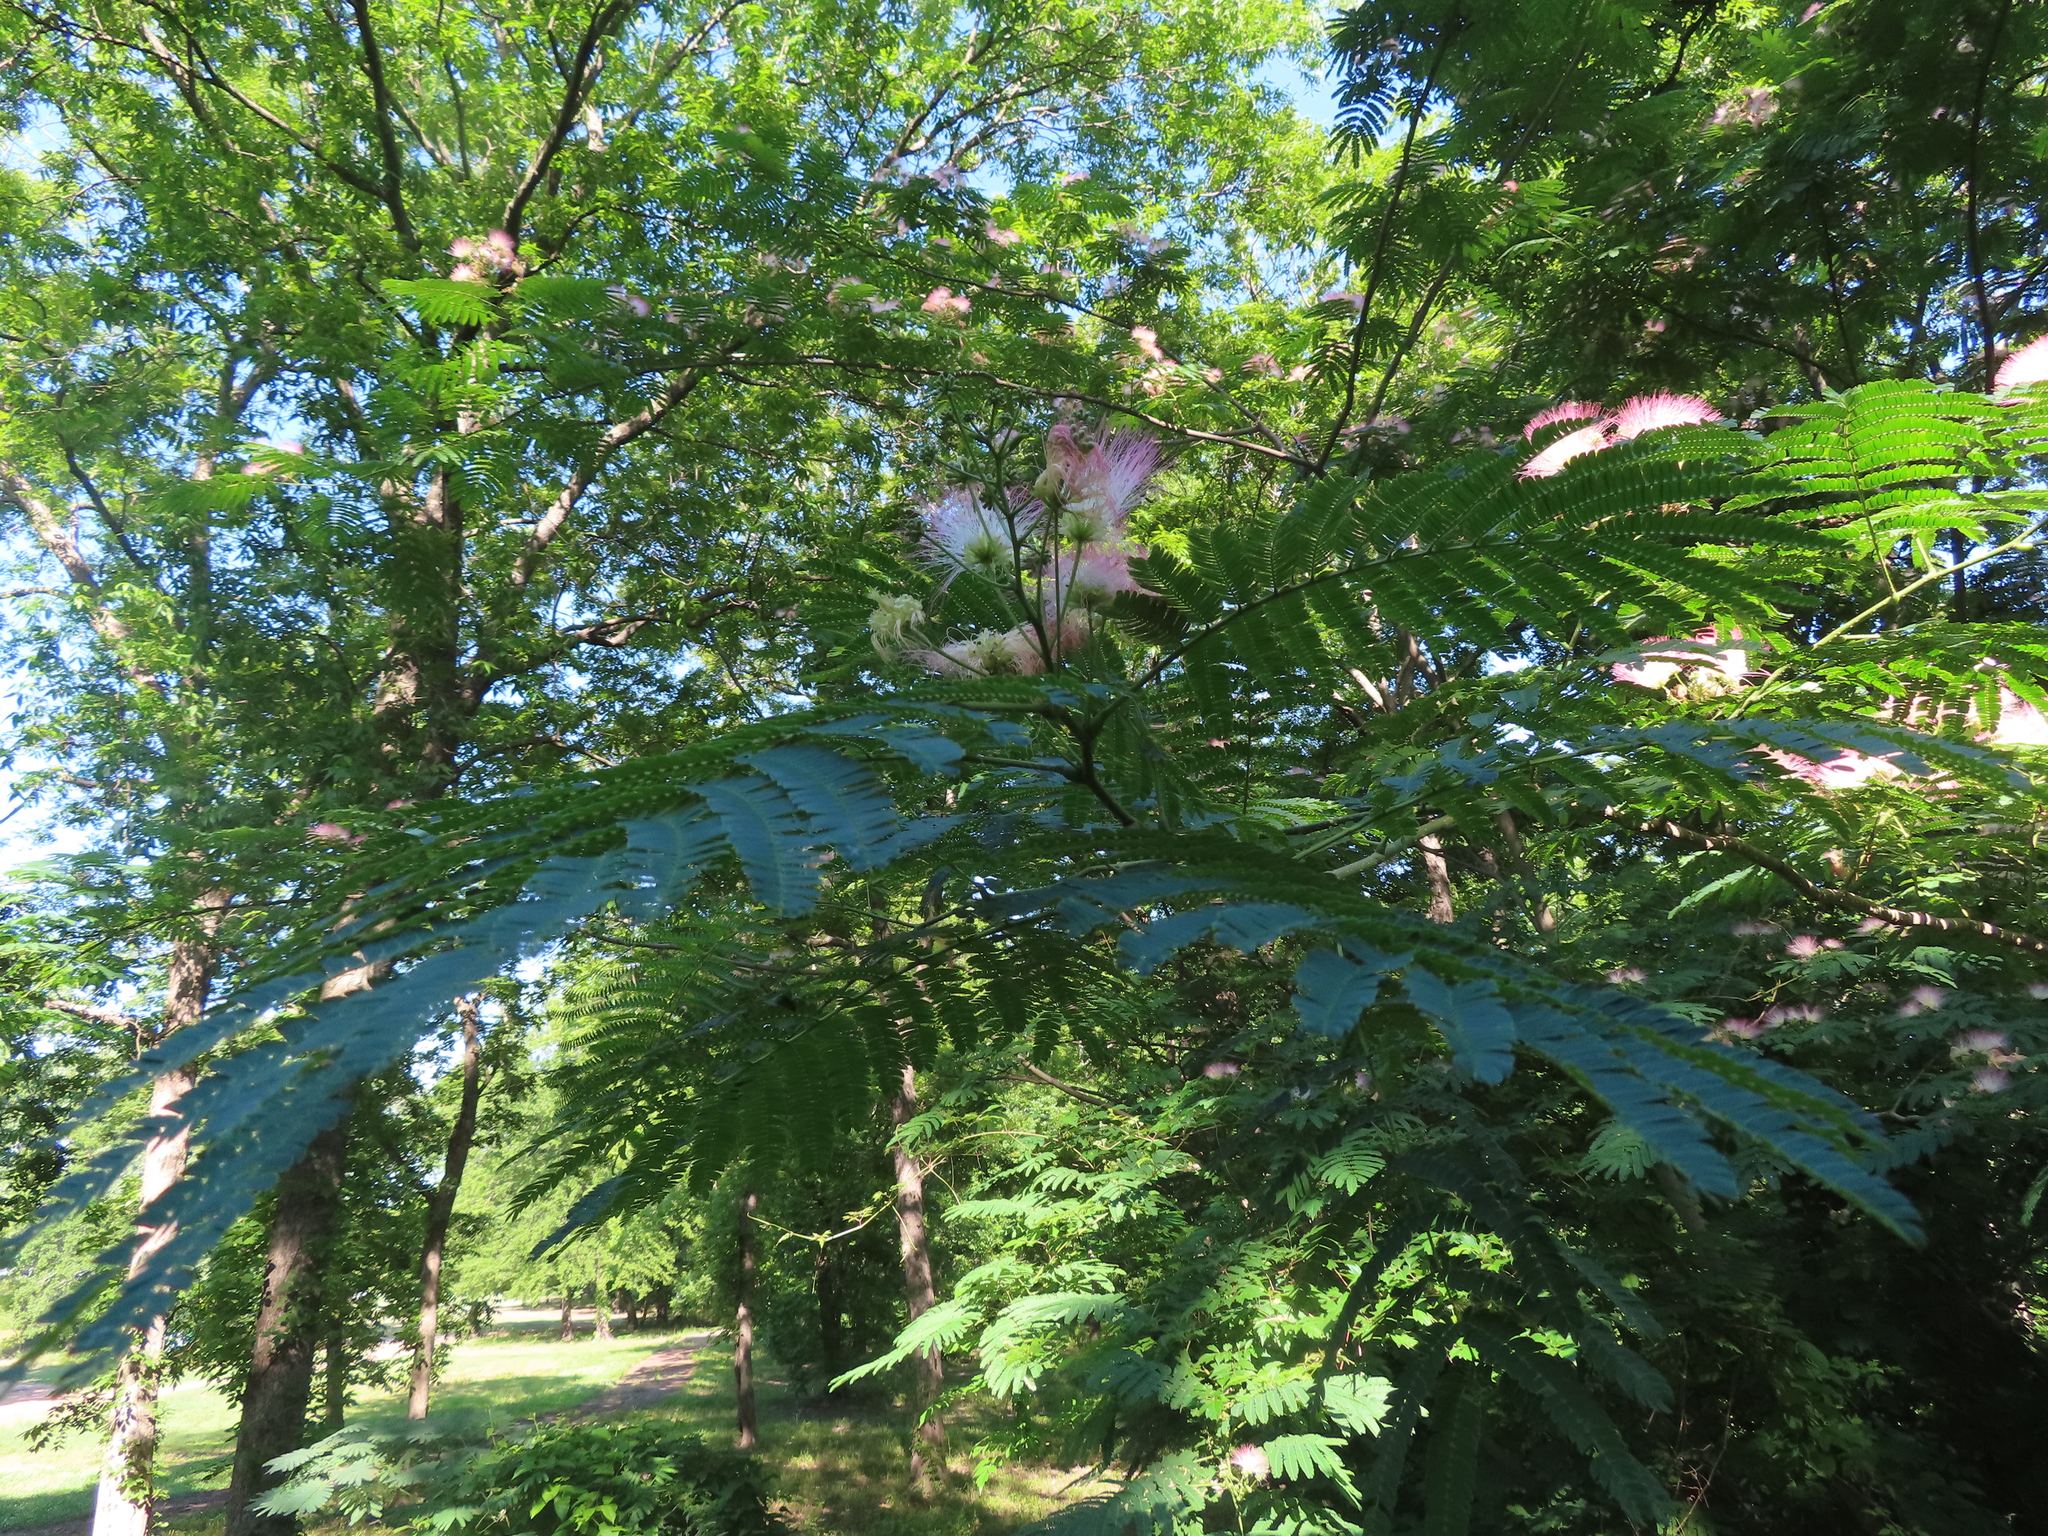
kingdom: Plantae
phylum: Tracheophyta
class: Magnoliopsida
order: Fabales
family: Fabaceae
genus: Albizia
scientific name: Albizia julibrissin
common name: Silktree
